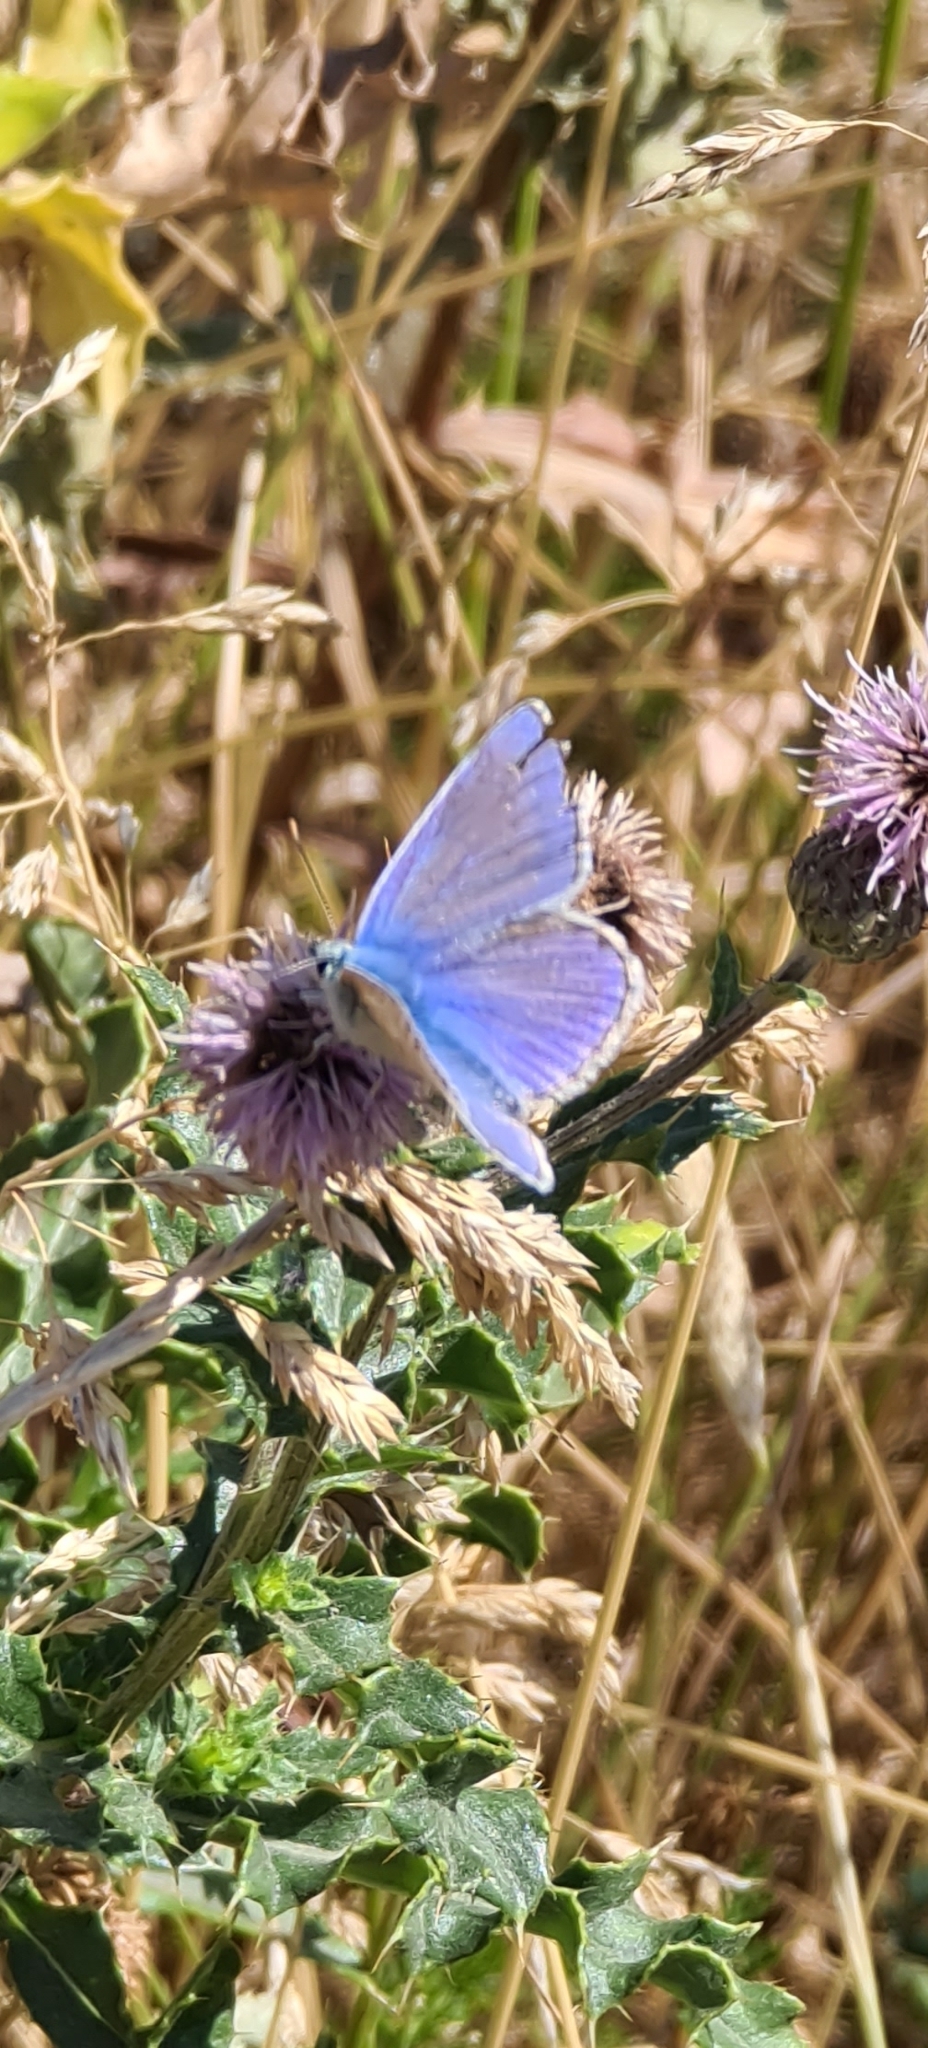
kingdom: Animalia
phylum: Arthropoda
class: Insecta
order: Lepidoptera
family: Lycaenidae
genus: Polyommatus
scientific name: Polyommatus icarus
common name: Common blue
